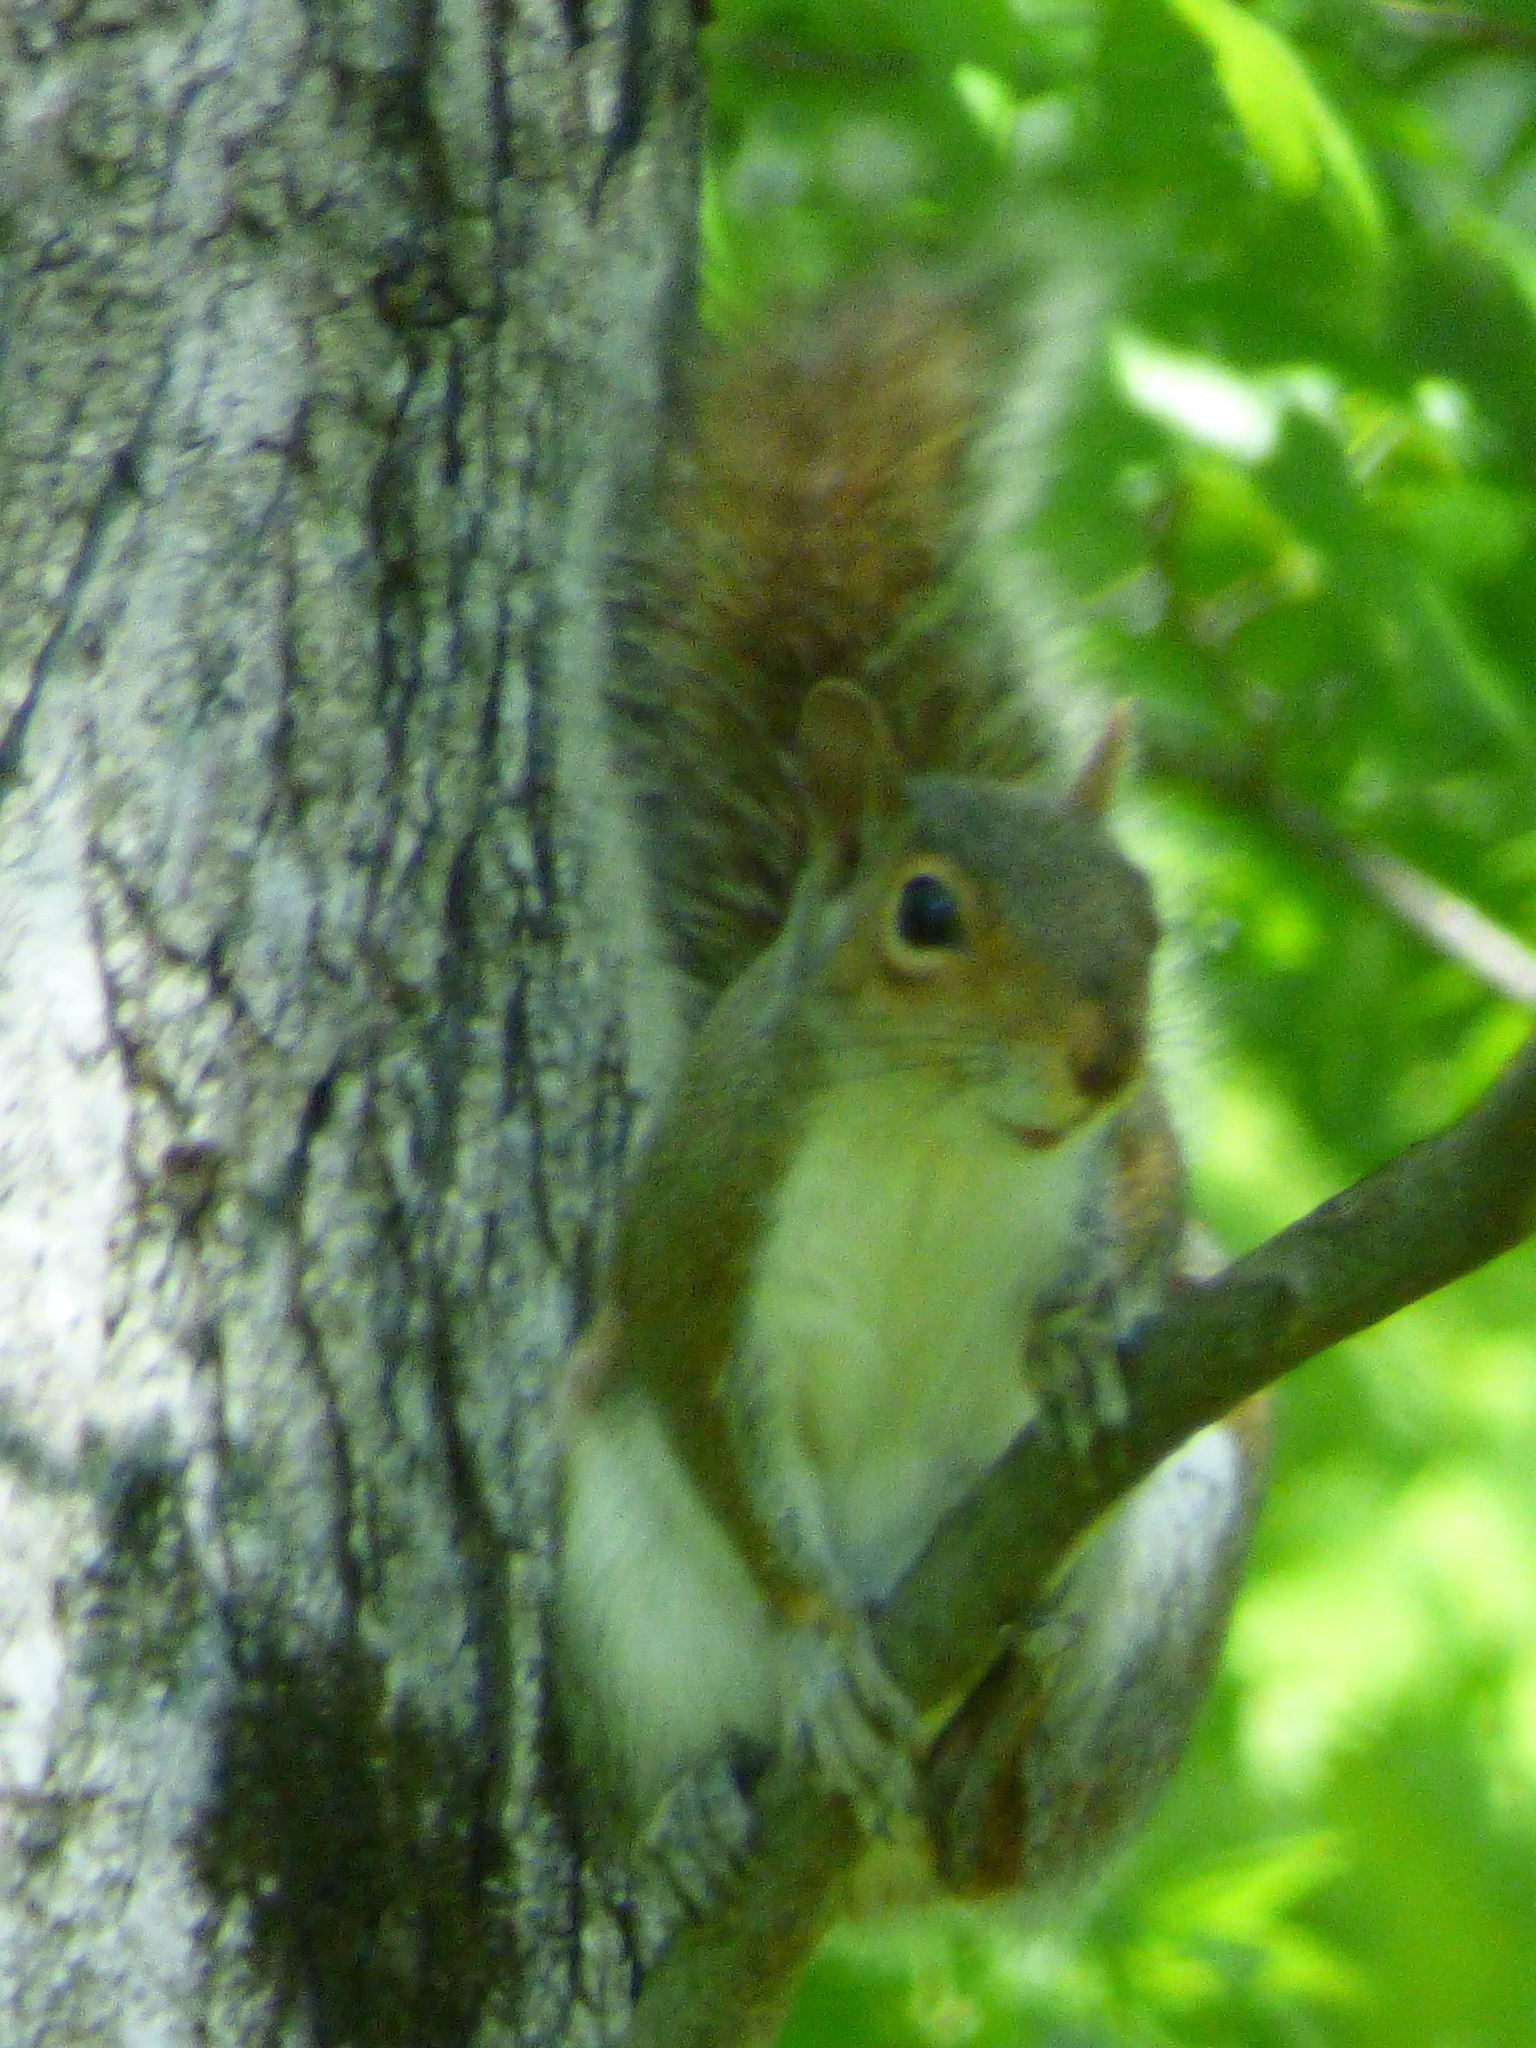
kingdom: Animalia
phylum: Chordata
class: Mammalia
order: Rodentia
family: Sciuridae
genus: Sciurus
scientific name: Sciurus carolinensis
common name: Eastern gray squirrel
